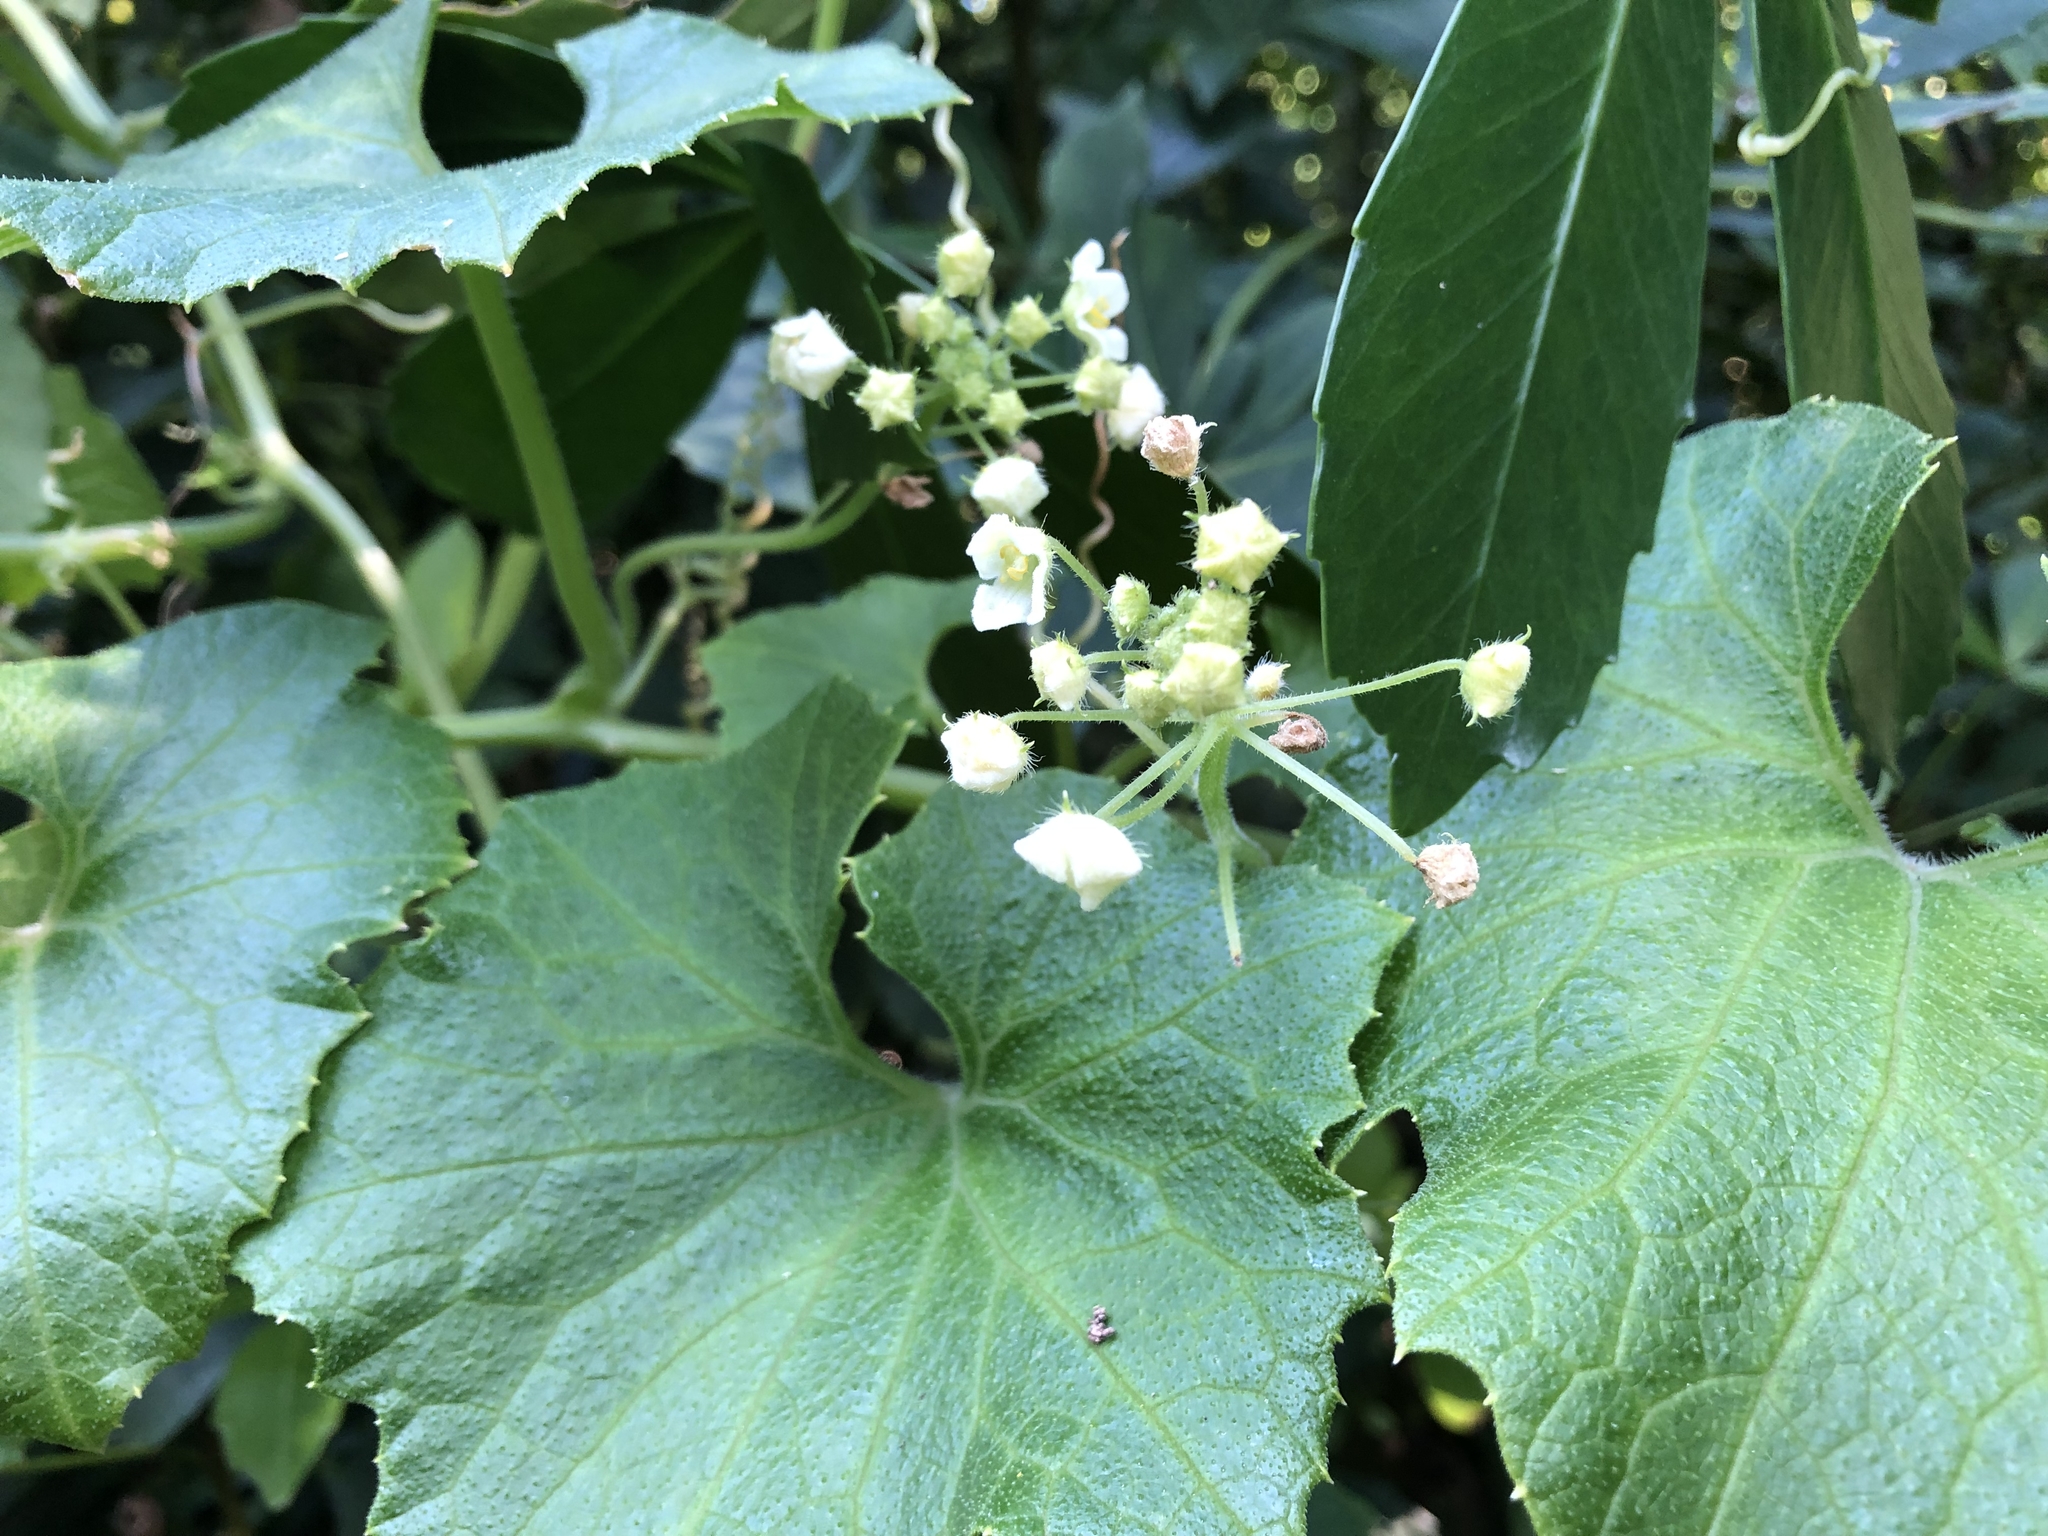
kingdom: Plantae
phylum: Tracheophyta
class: Magnoliopsida
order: Cucurbitales
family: Cucurbitaceae
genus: Sicyos
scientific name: Sicyos australis
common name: Angle-cucumber
